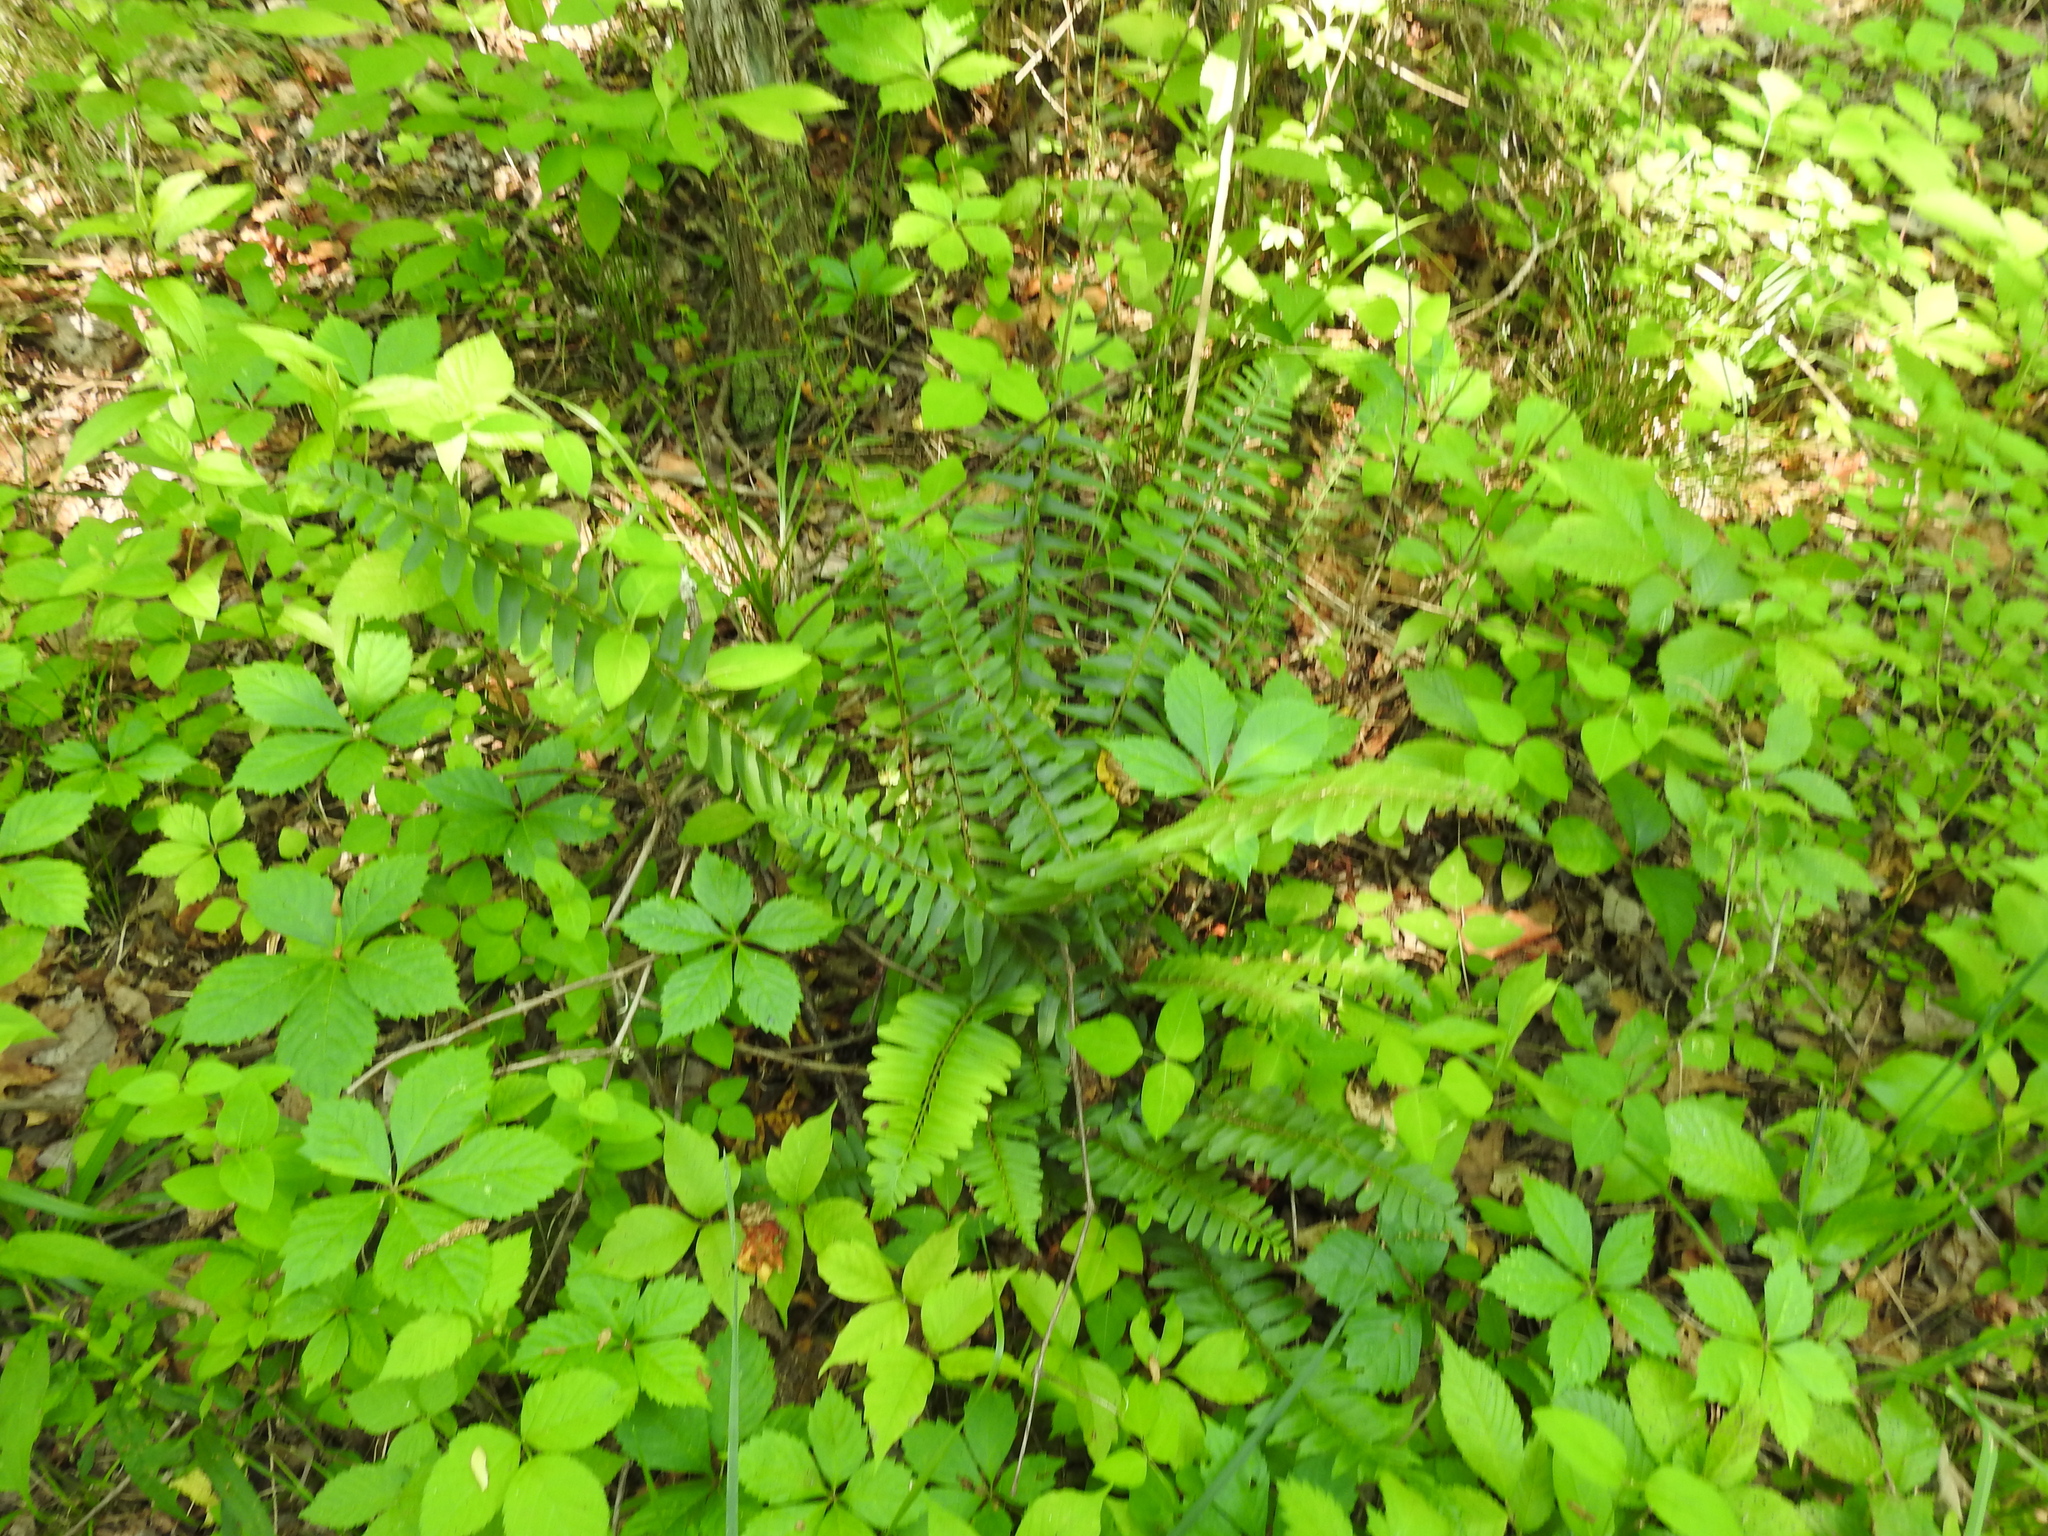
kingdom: Plantae
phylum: Tracheophyta
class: Polypodiopsida
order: Polypodiales
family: Dryopteridaceae
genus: Polystichum
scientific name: Polystichum acrostichoides
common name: Christmas fern
